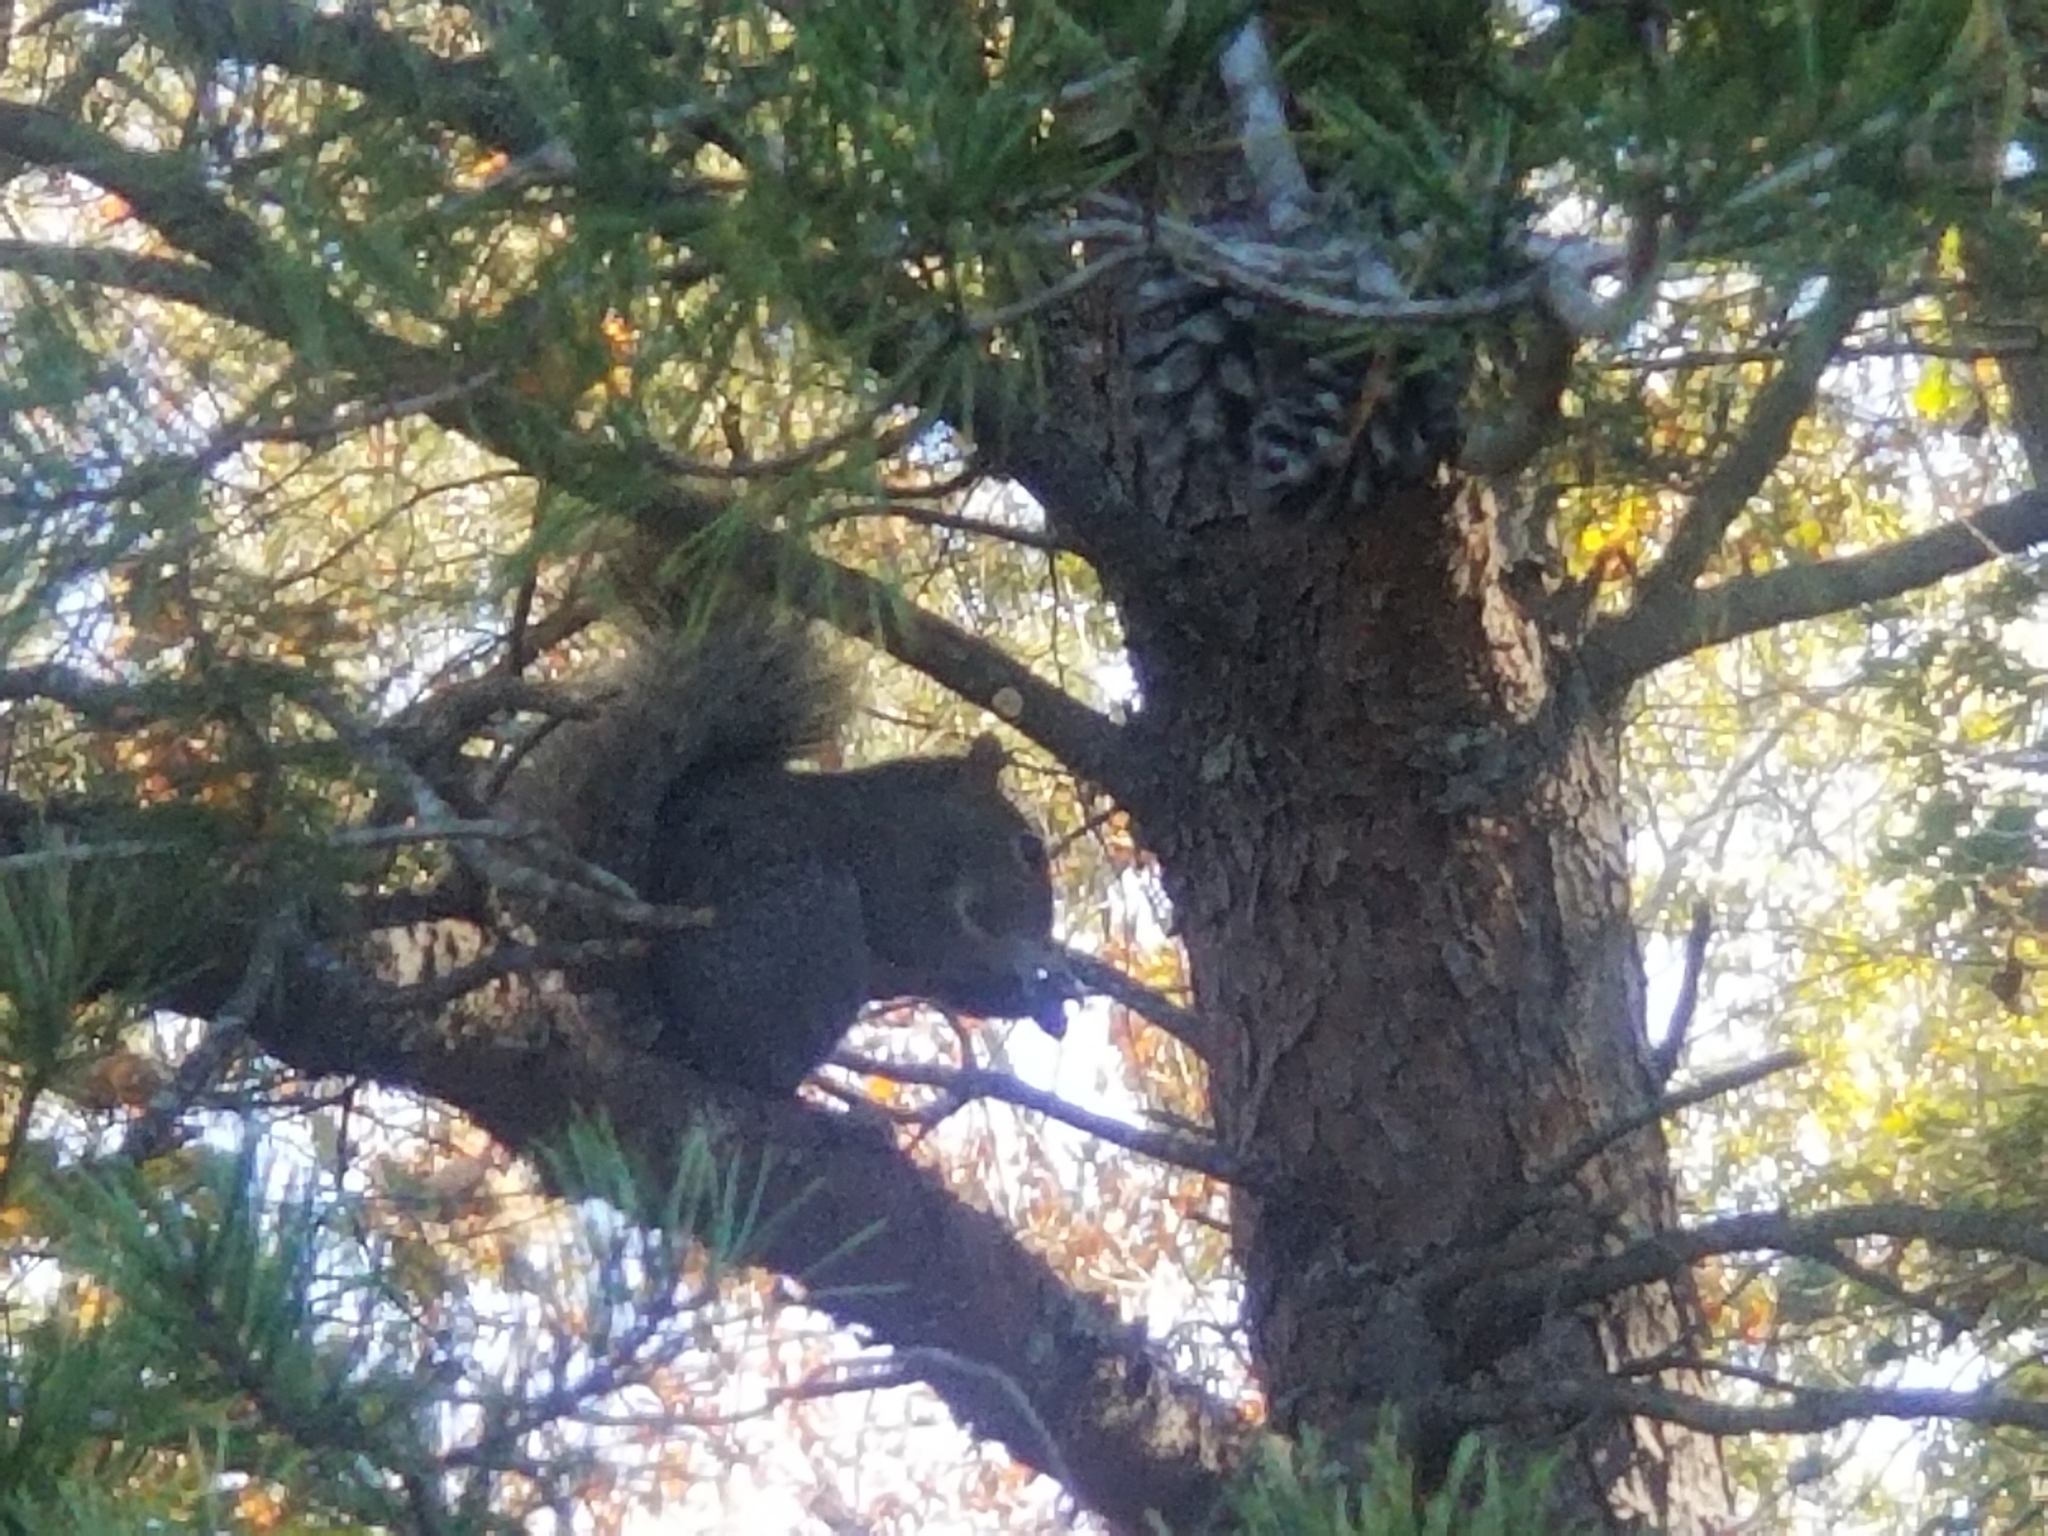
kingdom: Animalia
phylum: Chordata
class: Mammalia
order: Rodentia
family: Sciuridae
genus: Sciurus
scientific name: Sciurus carolinensis
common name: Eastern gray squirrel
